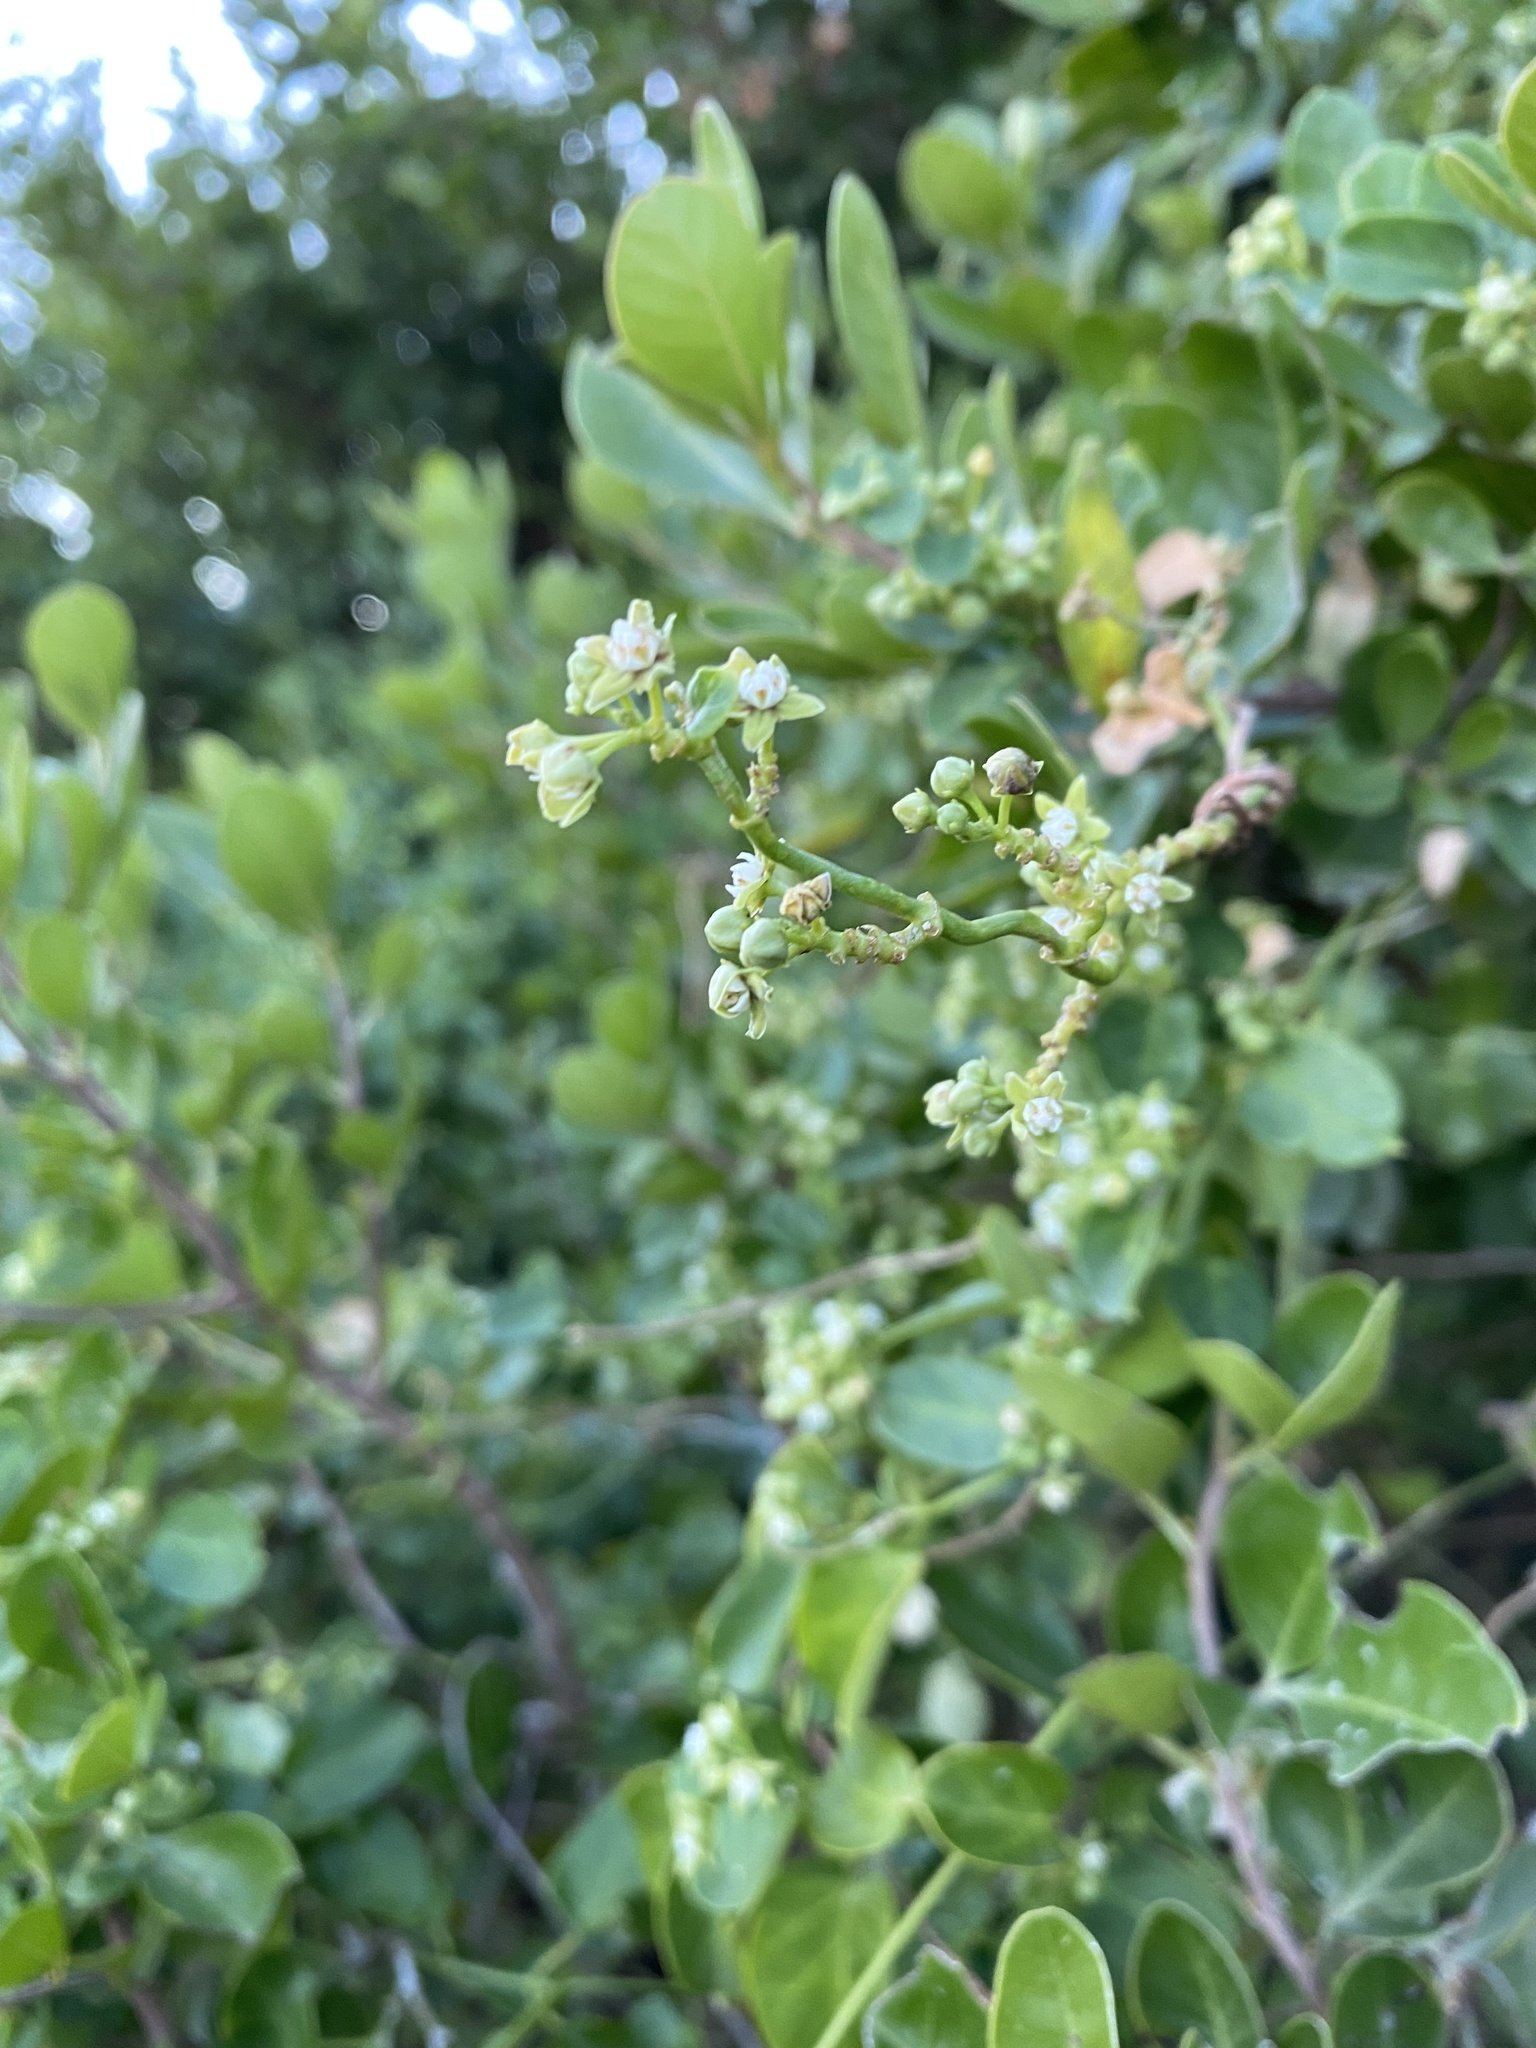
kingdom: Plantae
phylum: Tracheophyta
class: Magnoliopsida
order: Gentianales
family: Apocynaceae
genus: Cynanchum
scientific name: Cynanchum obtusifolium
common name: Monkey-rope
